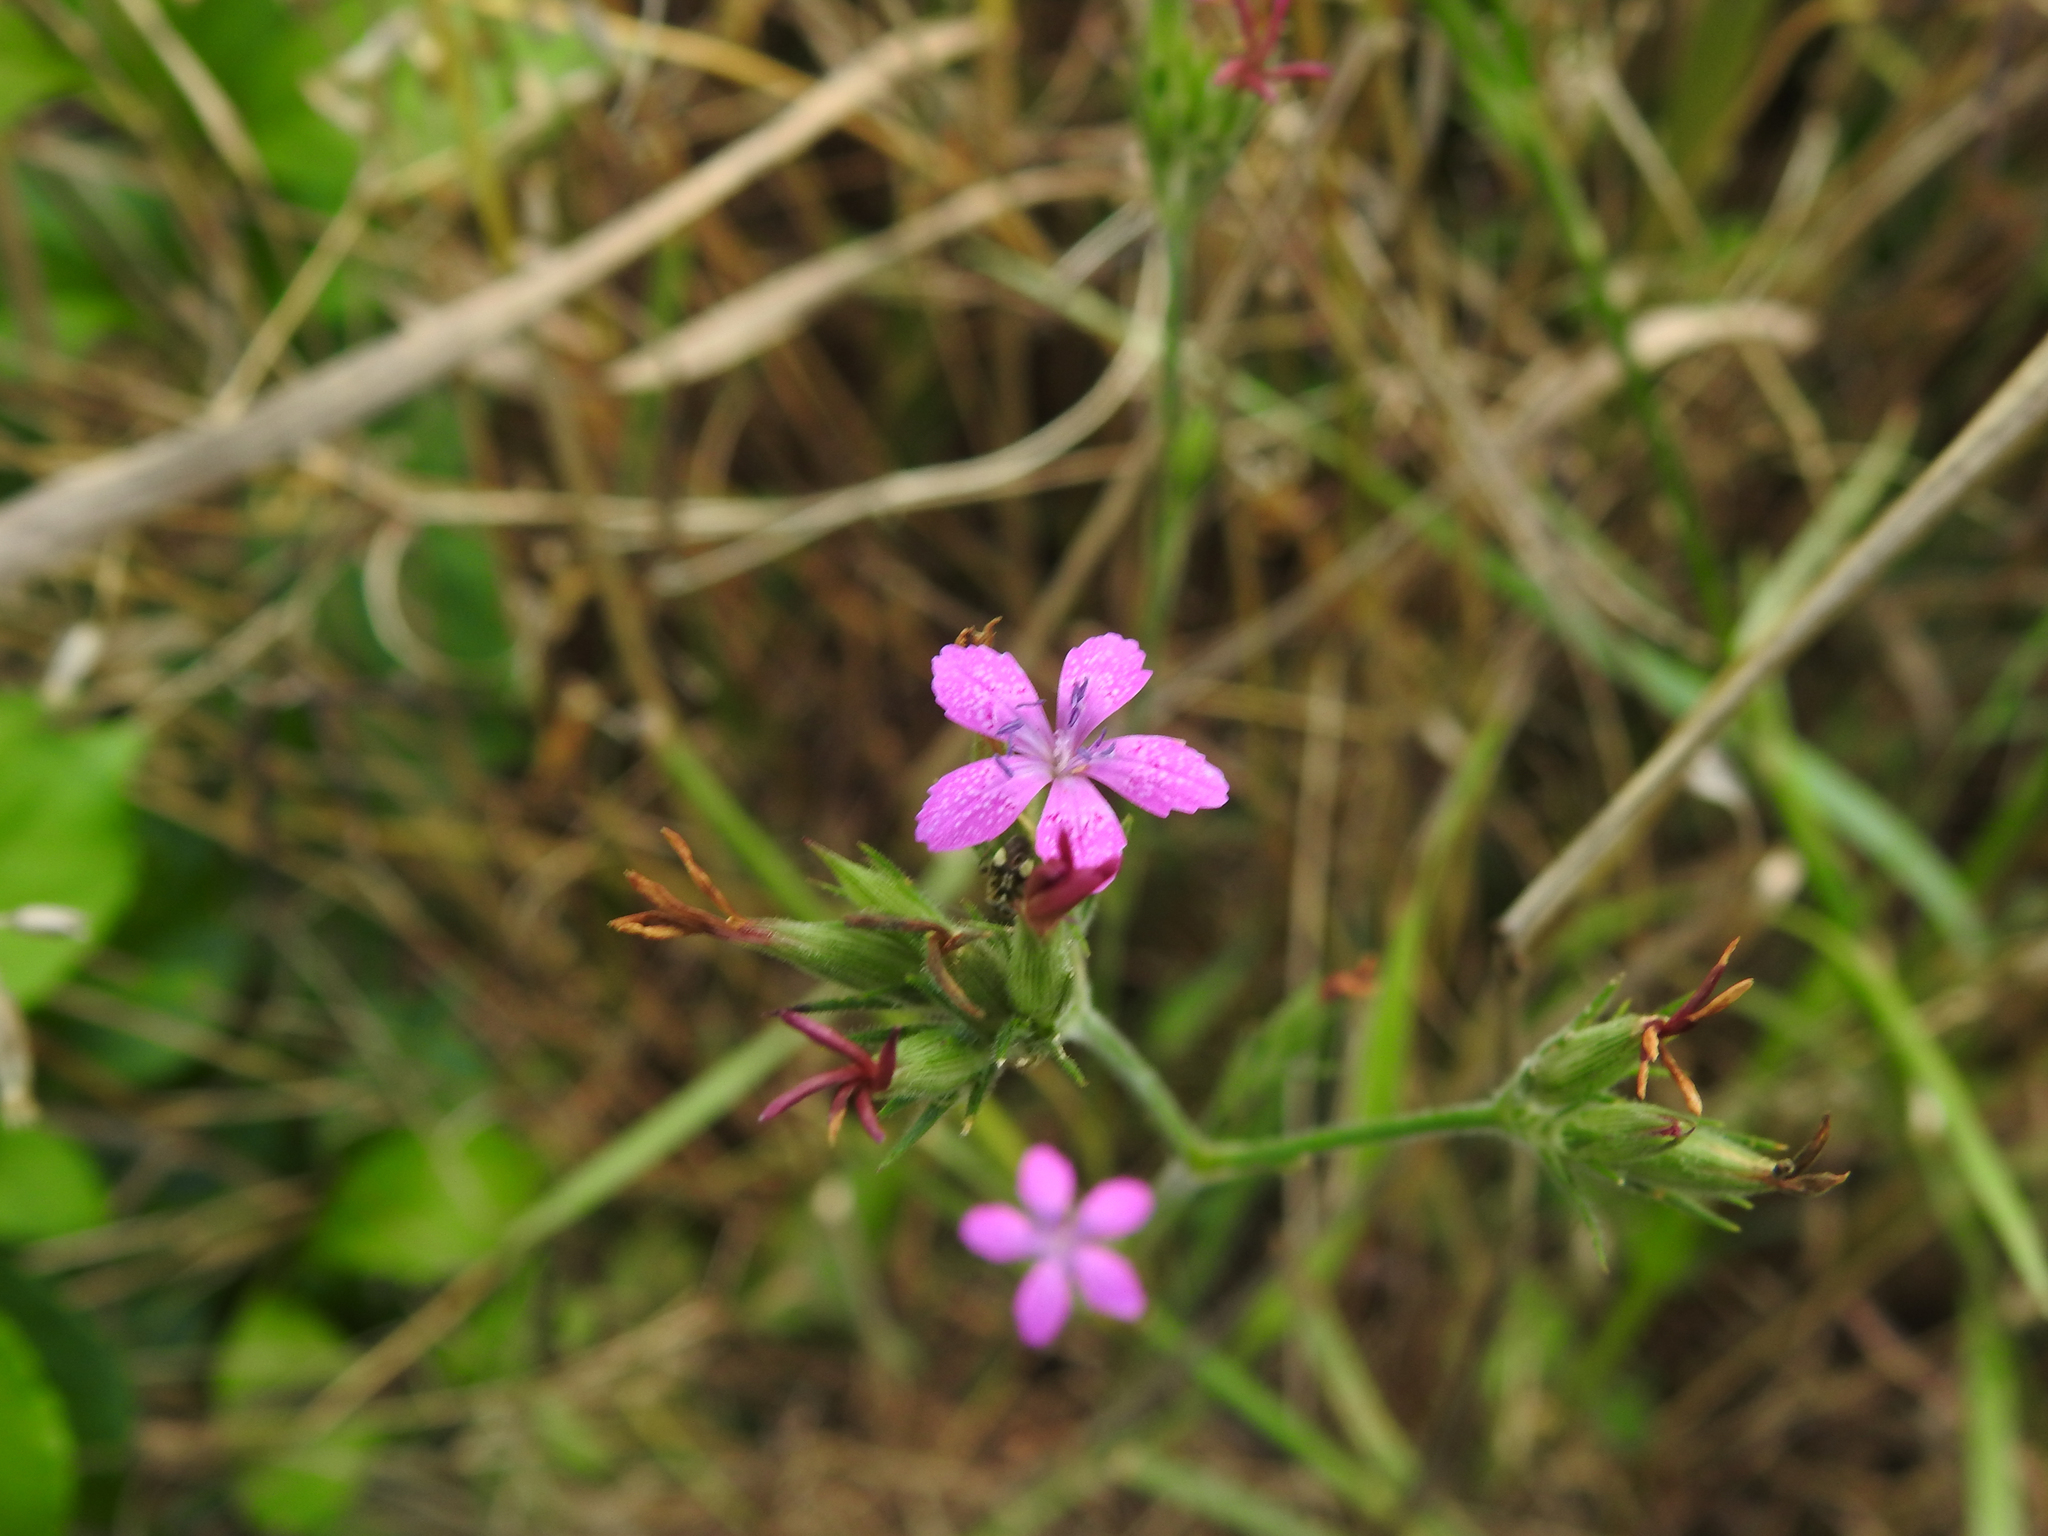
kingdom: Plantae
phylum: Tracheophyta
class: Magnoliopsida
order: Caryophyllales
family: Caryophyllaceae
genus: Dianthus
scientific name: Dianthus armeria
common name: Deptford pink
